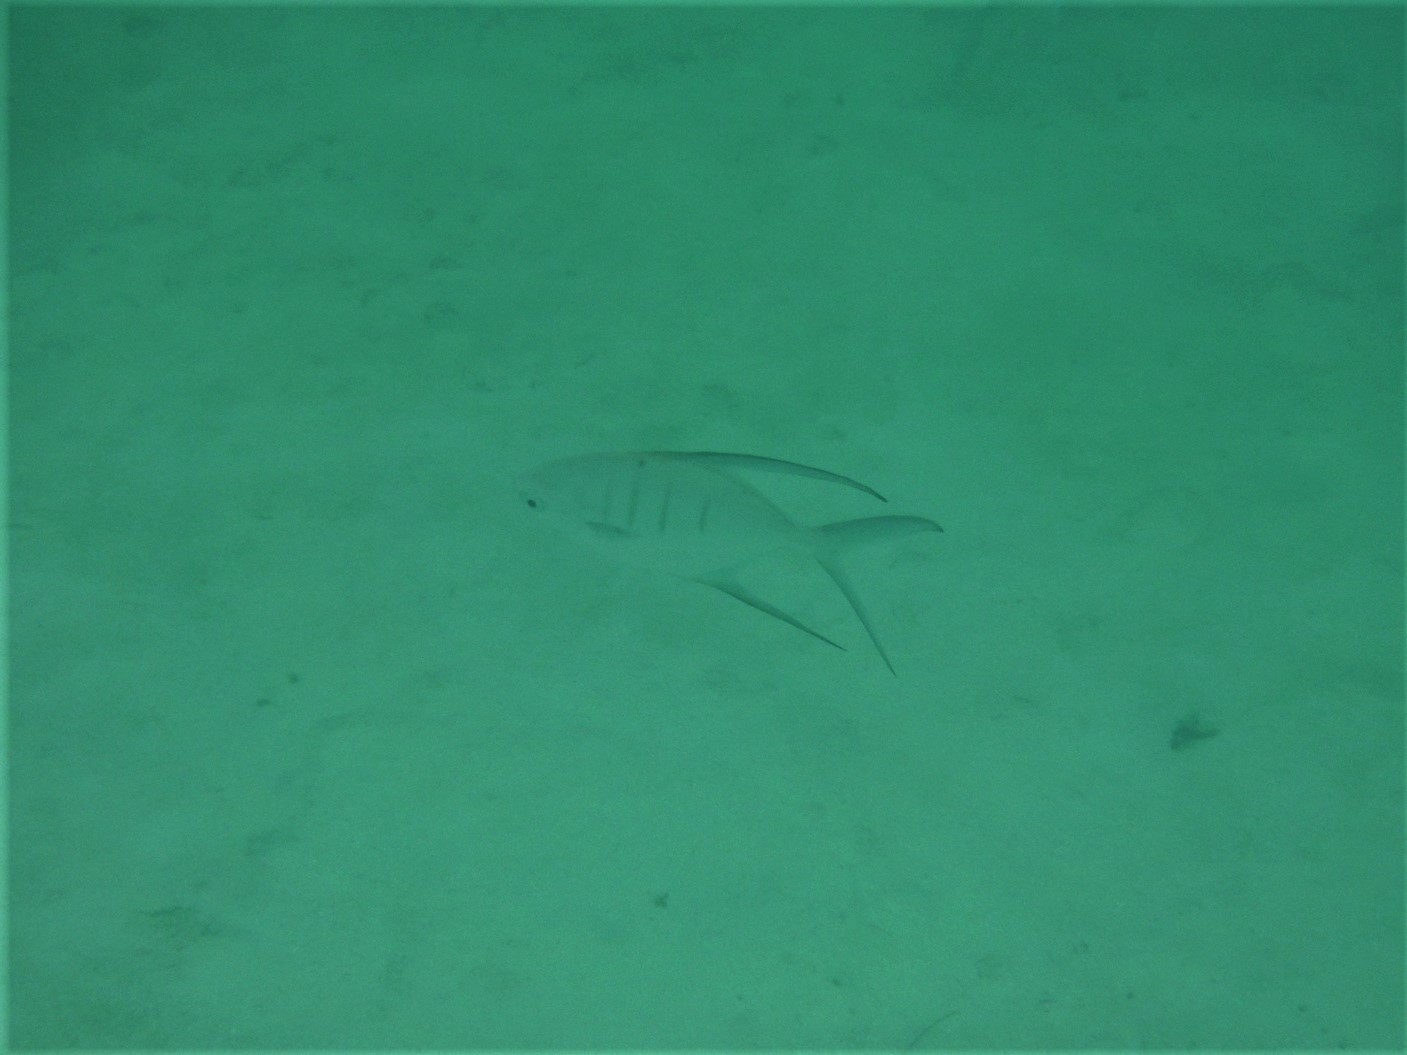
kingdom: Animalia
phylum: Chordata
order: Perciformes
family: Carangidae
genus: Trachinotus
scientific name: Trachinotus goodei
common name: Palometa
